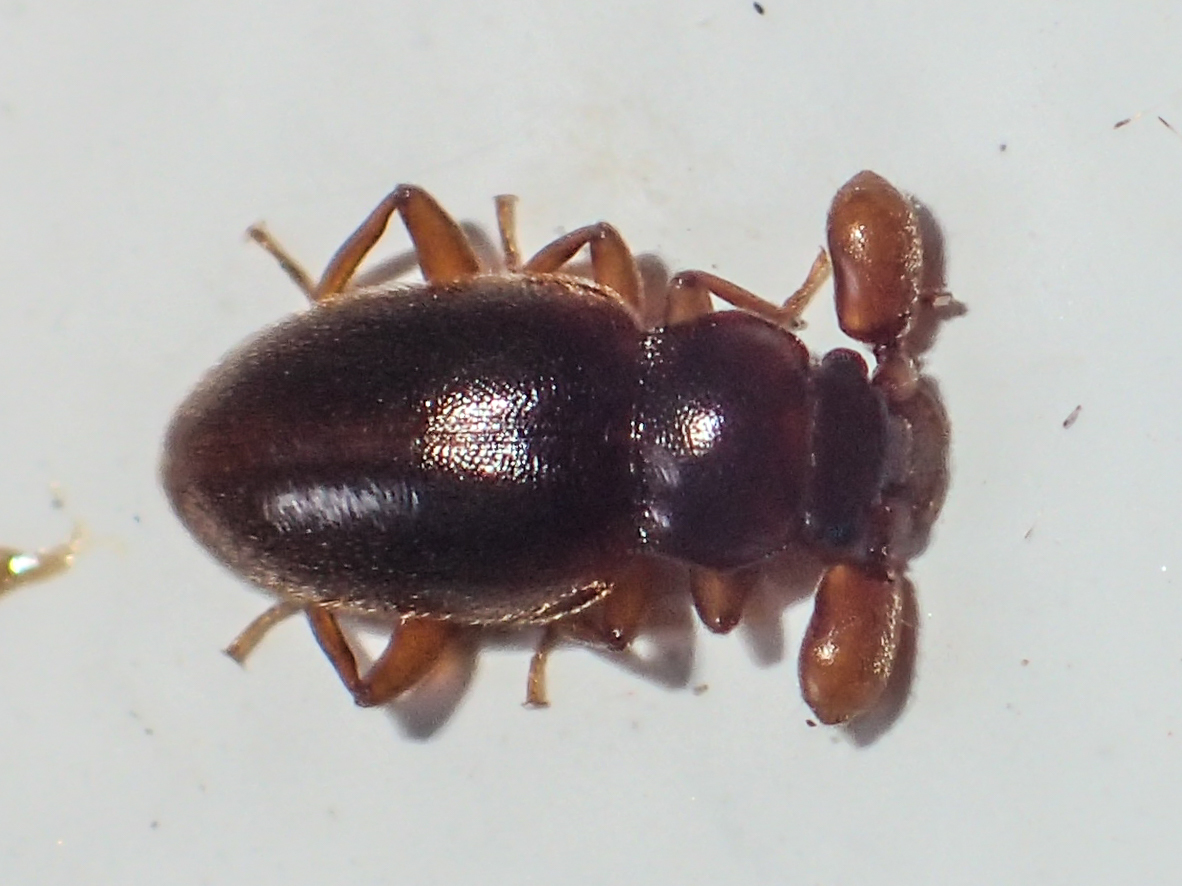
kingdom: Animalia
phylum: Arthropoda
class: Insecta
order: Coleoptera
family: Endomychidae
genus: Trochoideus
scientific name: Trochoideus desjardinsi
